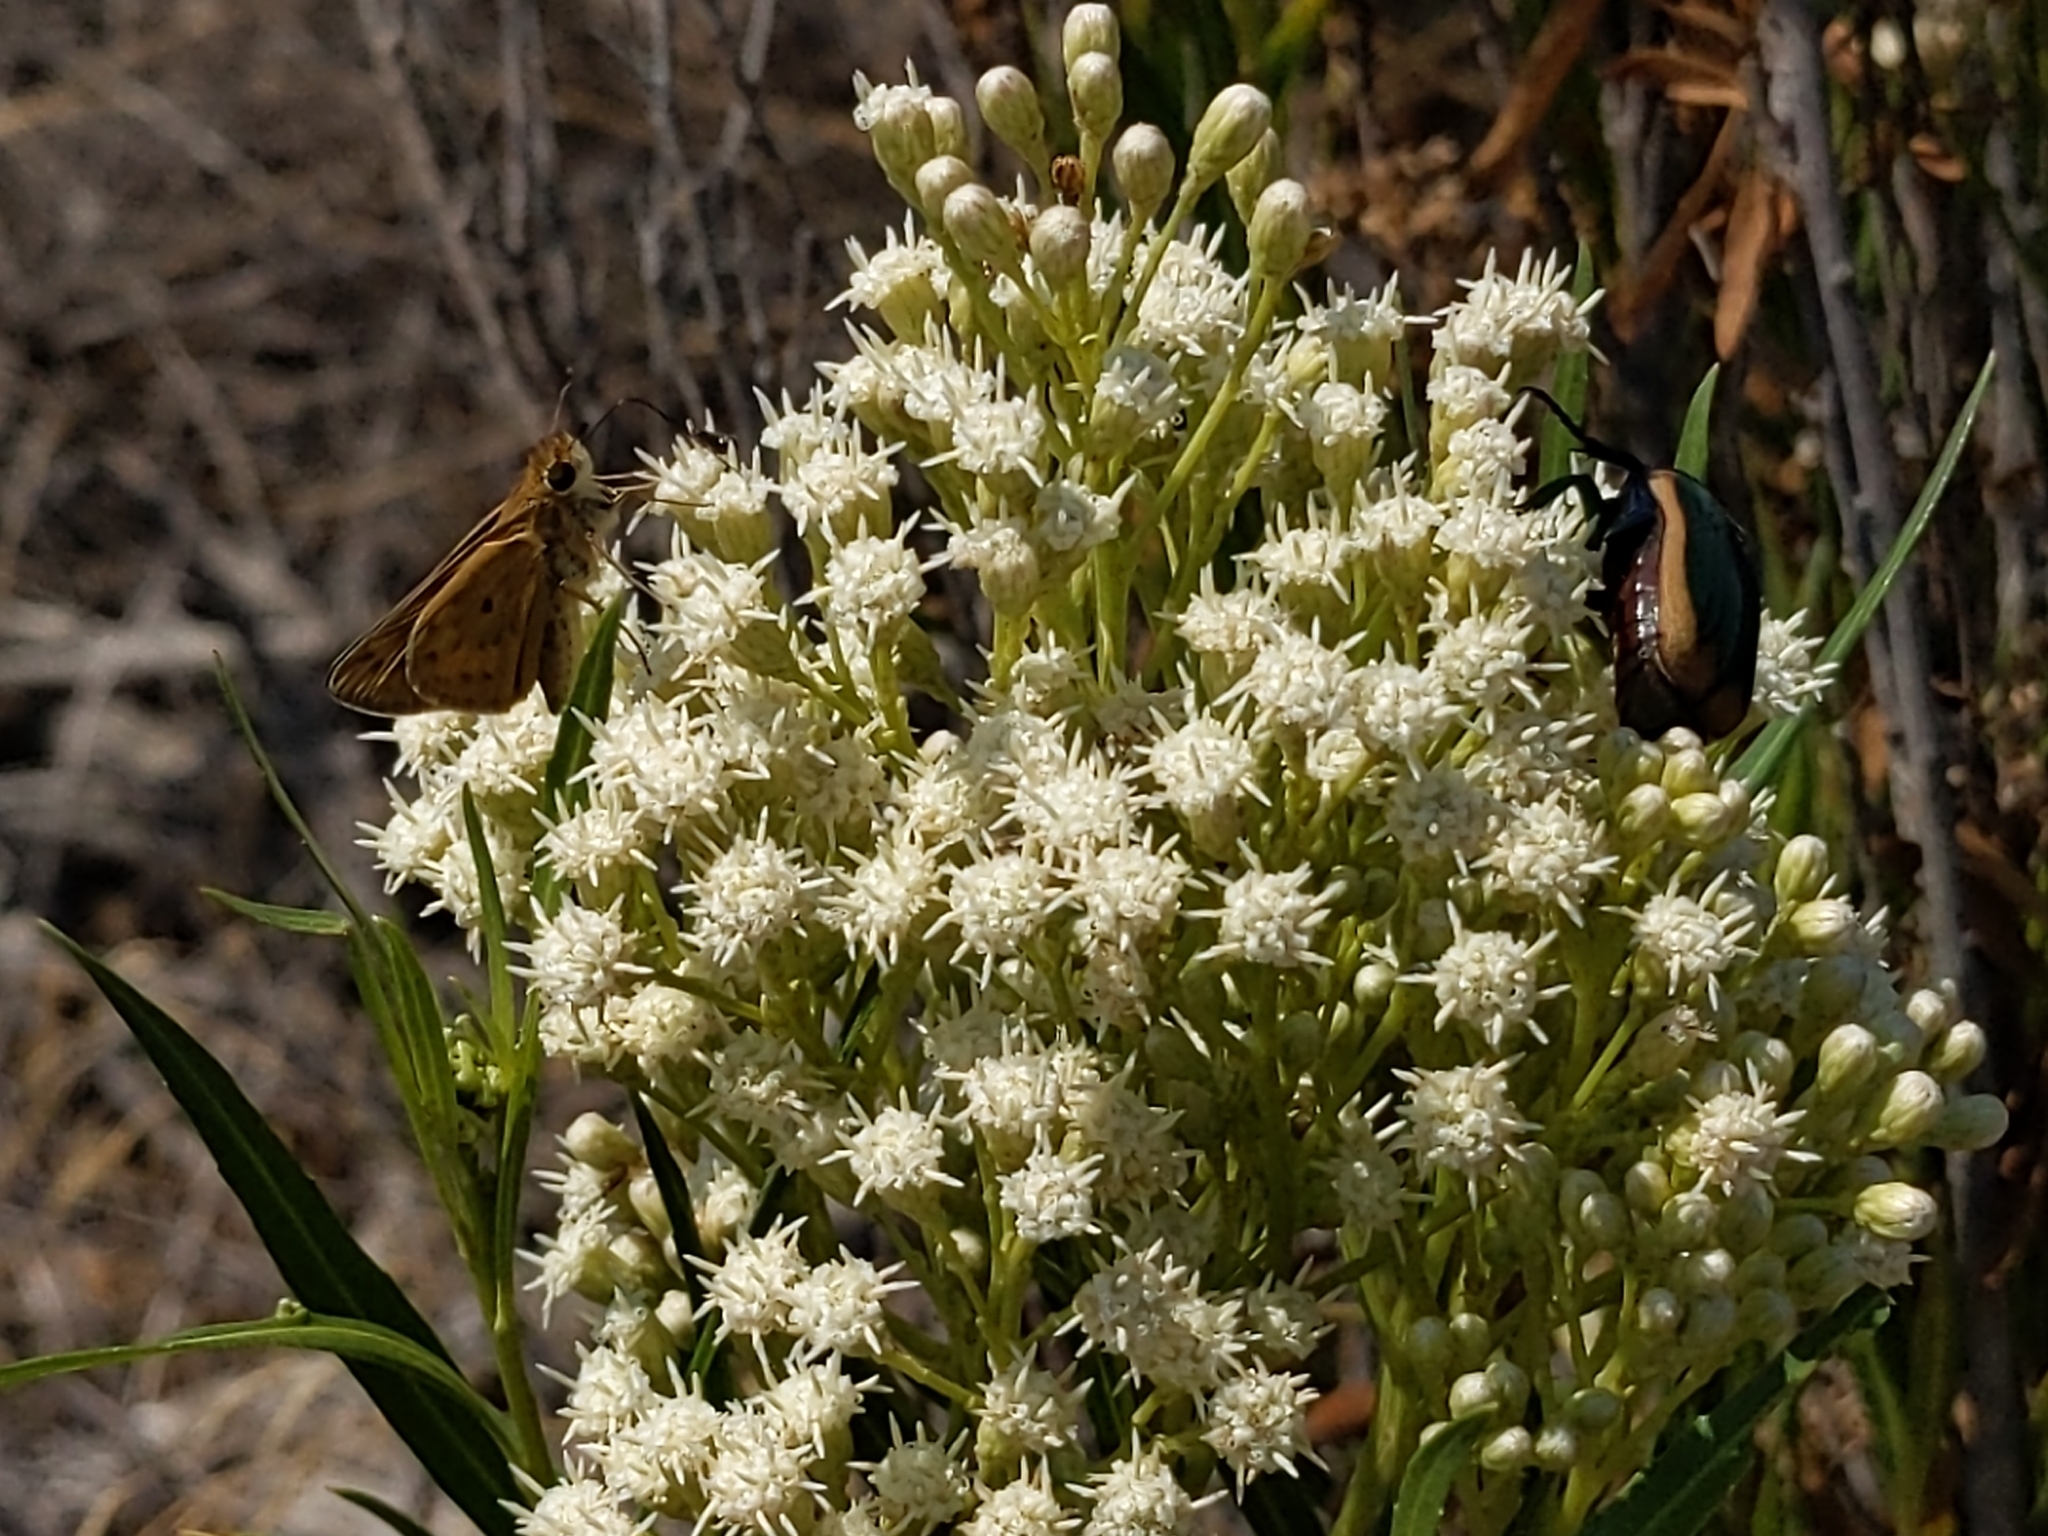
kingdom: Plantae
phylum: Tracheophyta
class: Magnoliopsida
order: Asterales
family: Asteraceae
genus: Baccharis
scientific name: Baccharis salicifolia
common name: Sticky baccharis
